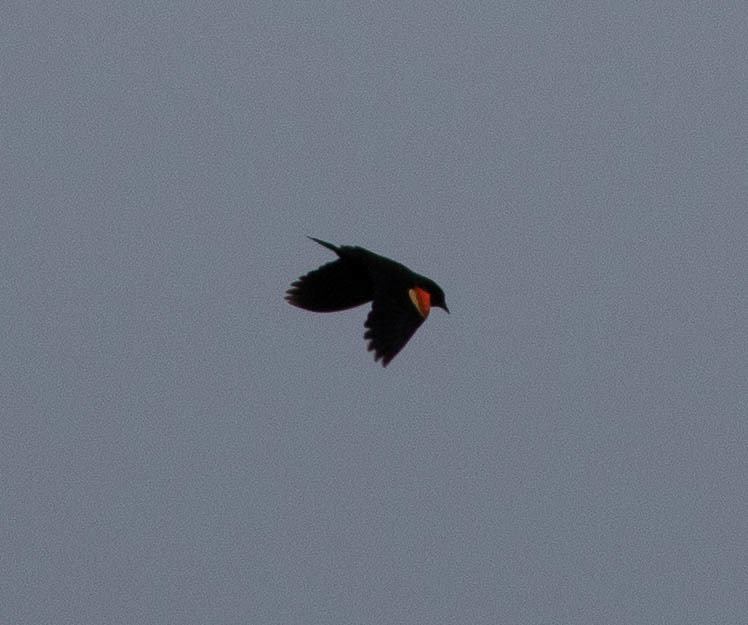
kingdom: Animalia
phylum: Chordata
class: Aves
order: Passeriformes
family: Icteridae
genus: Agelaius
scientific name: Agelaius phoeniceus
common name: Red-winged blackbird
